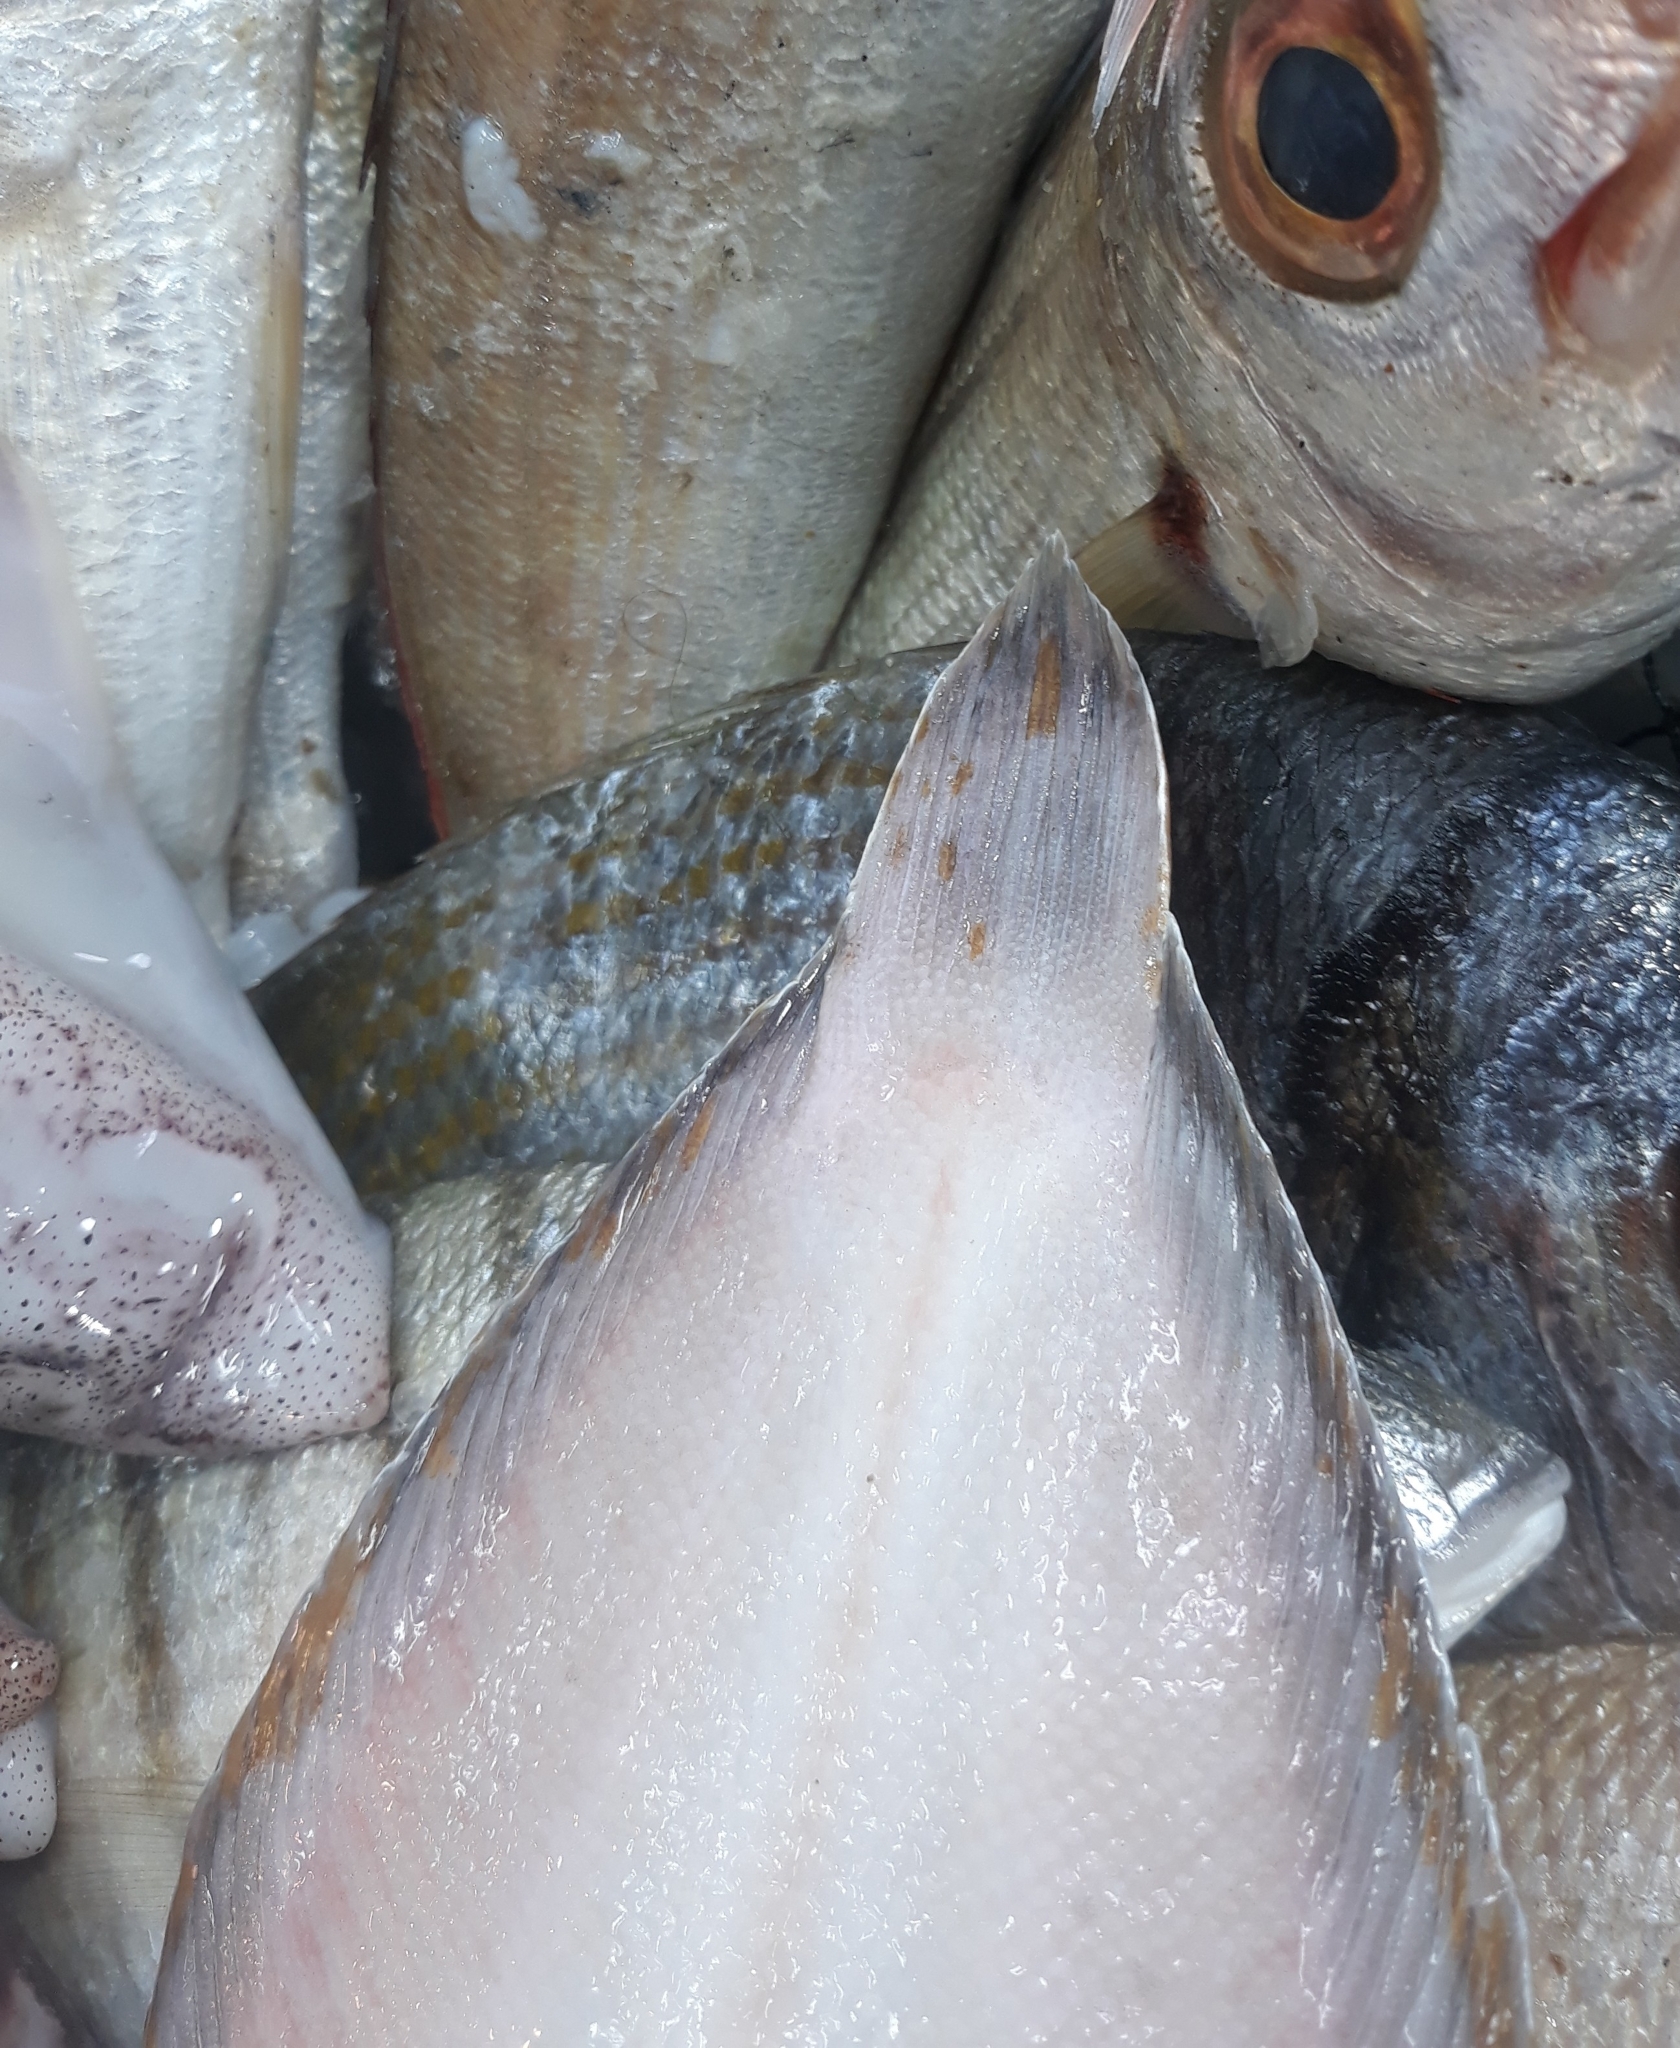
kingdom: Animalia
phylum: Chordata
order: Pleuronectiformes
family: Soleidae
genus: Synapturichthys
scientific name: Synapturichthys kleinii
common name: Klein's sole
